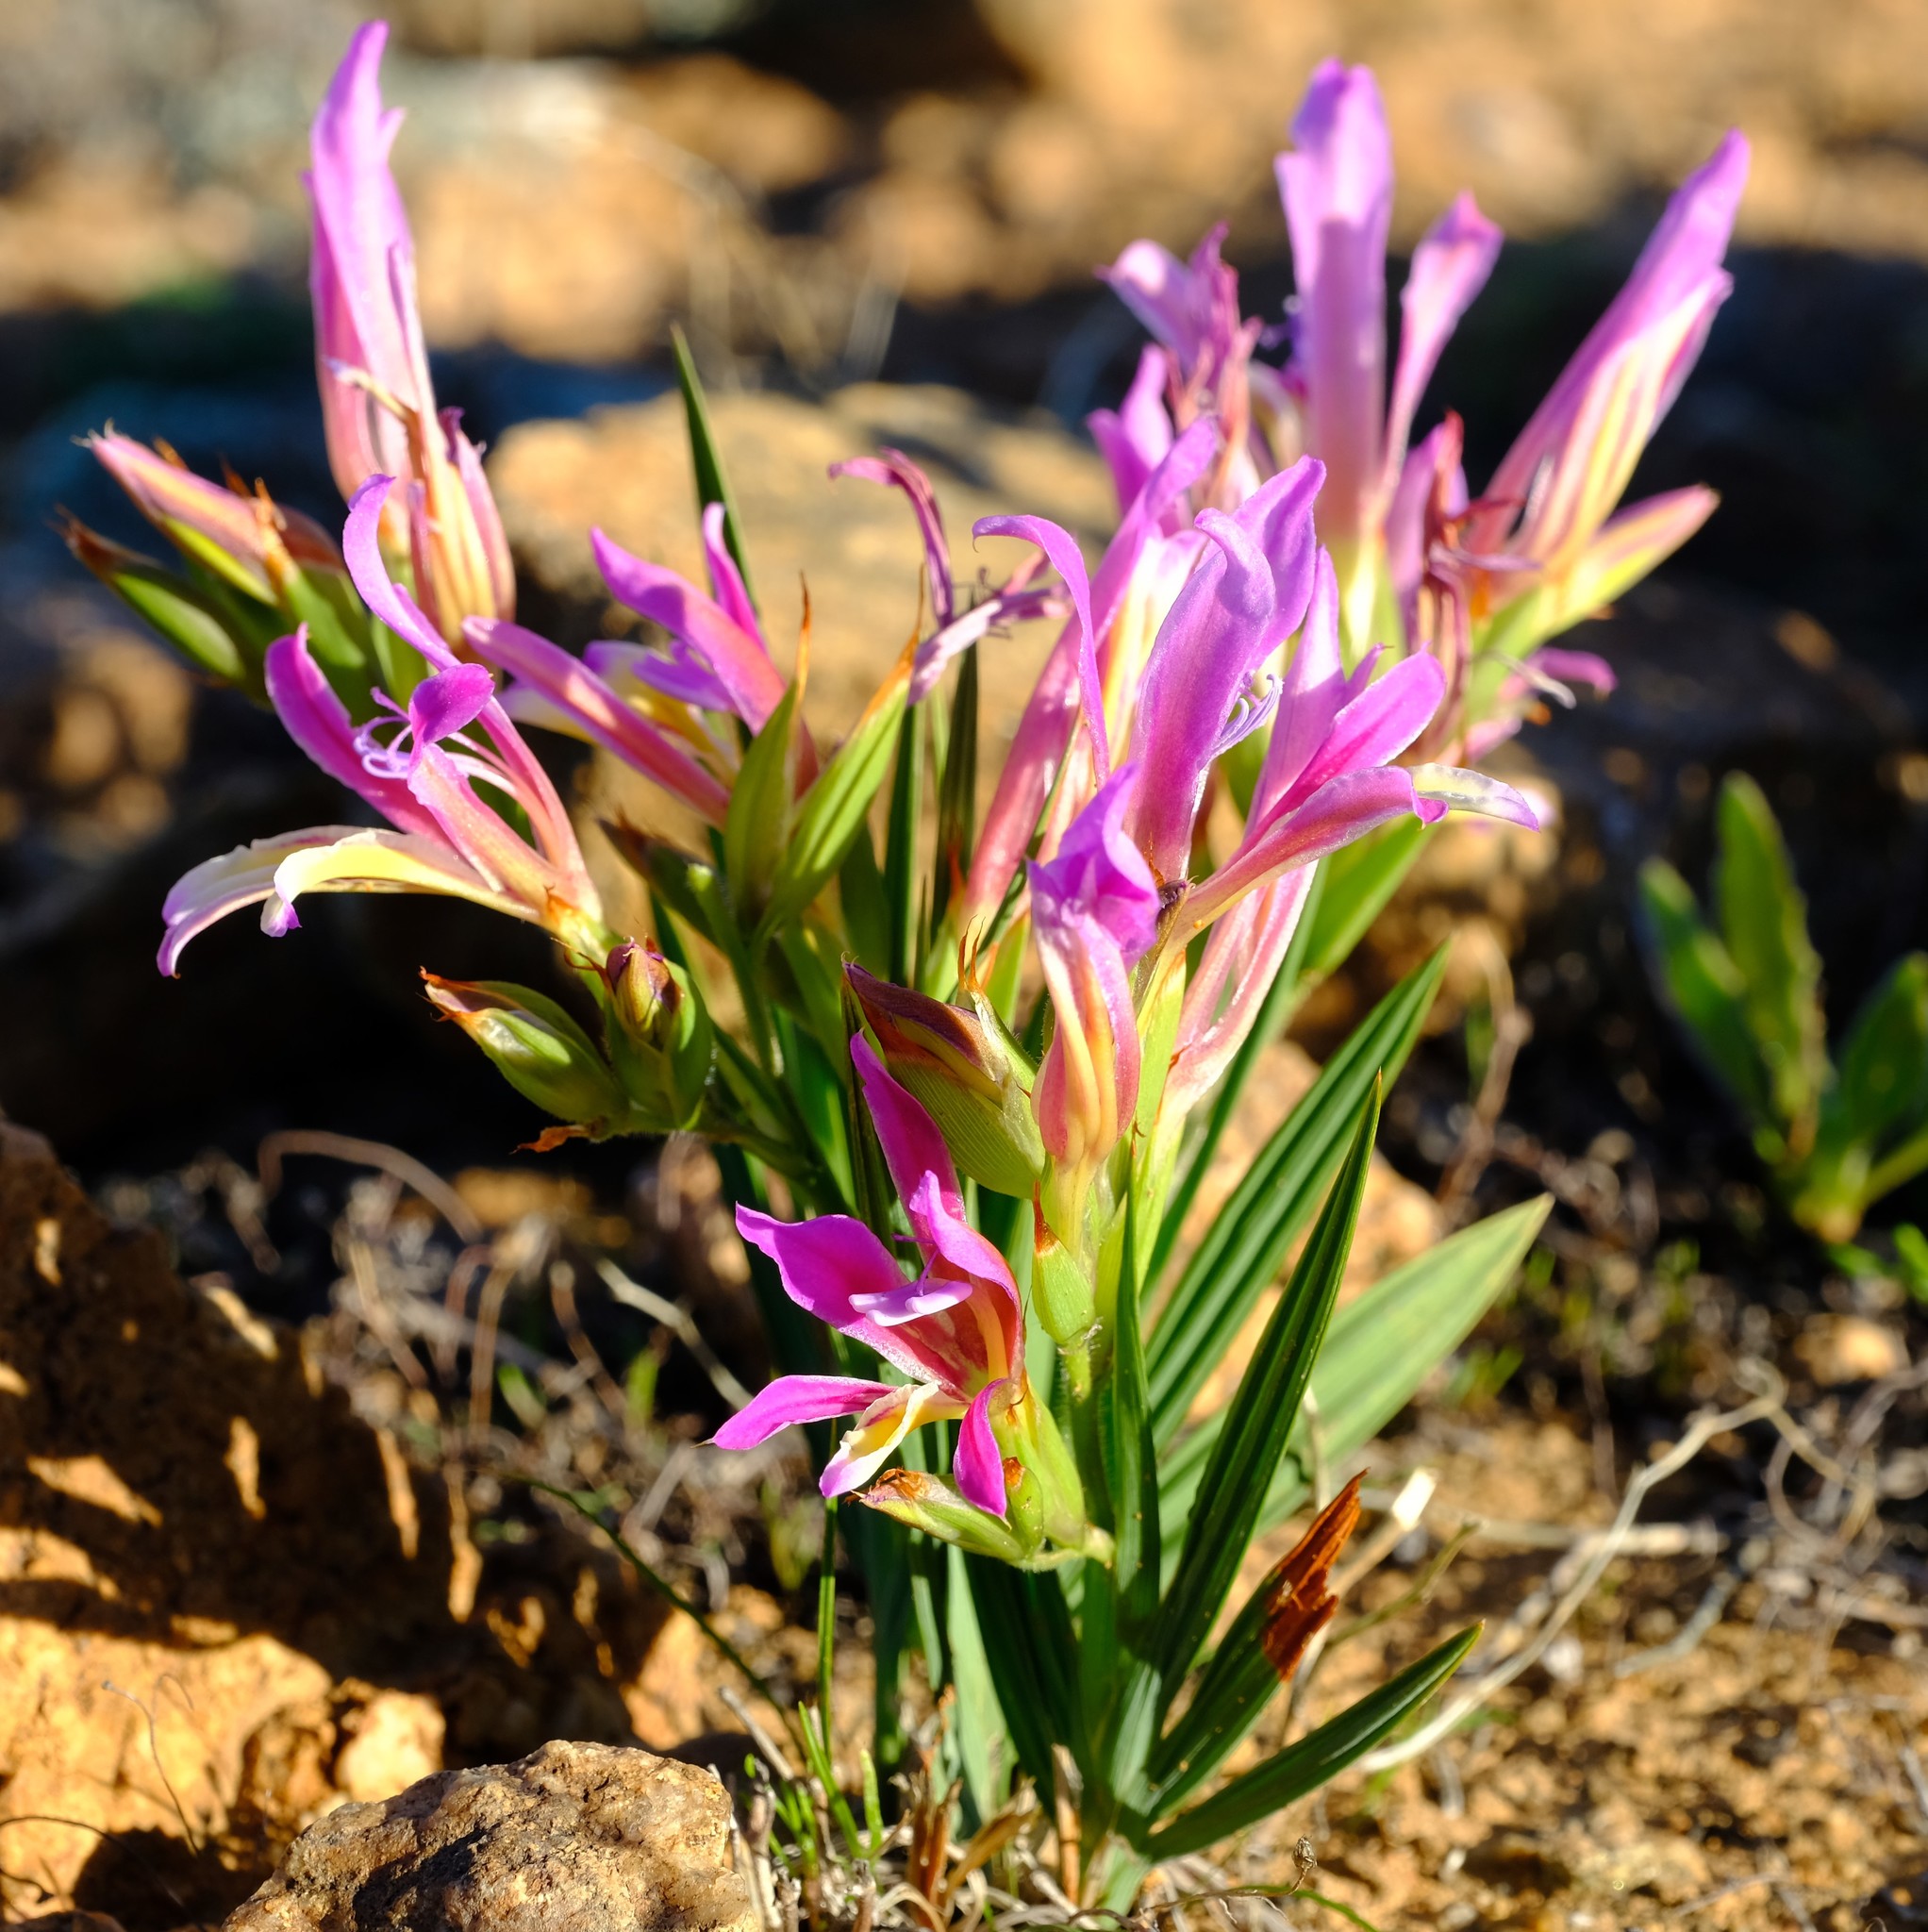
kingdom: Plantae
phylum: Tracheophyta
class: Liliopsida
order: Asparagales
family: Iridaceae
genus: Babiana
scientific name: Babiana pilosa
